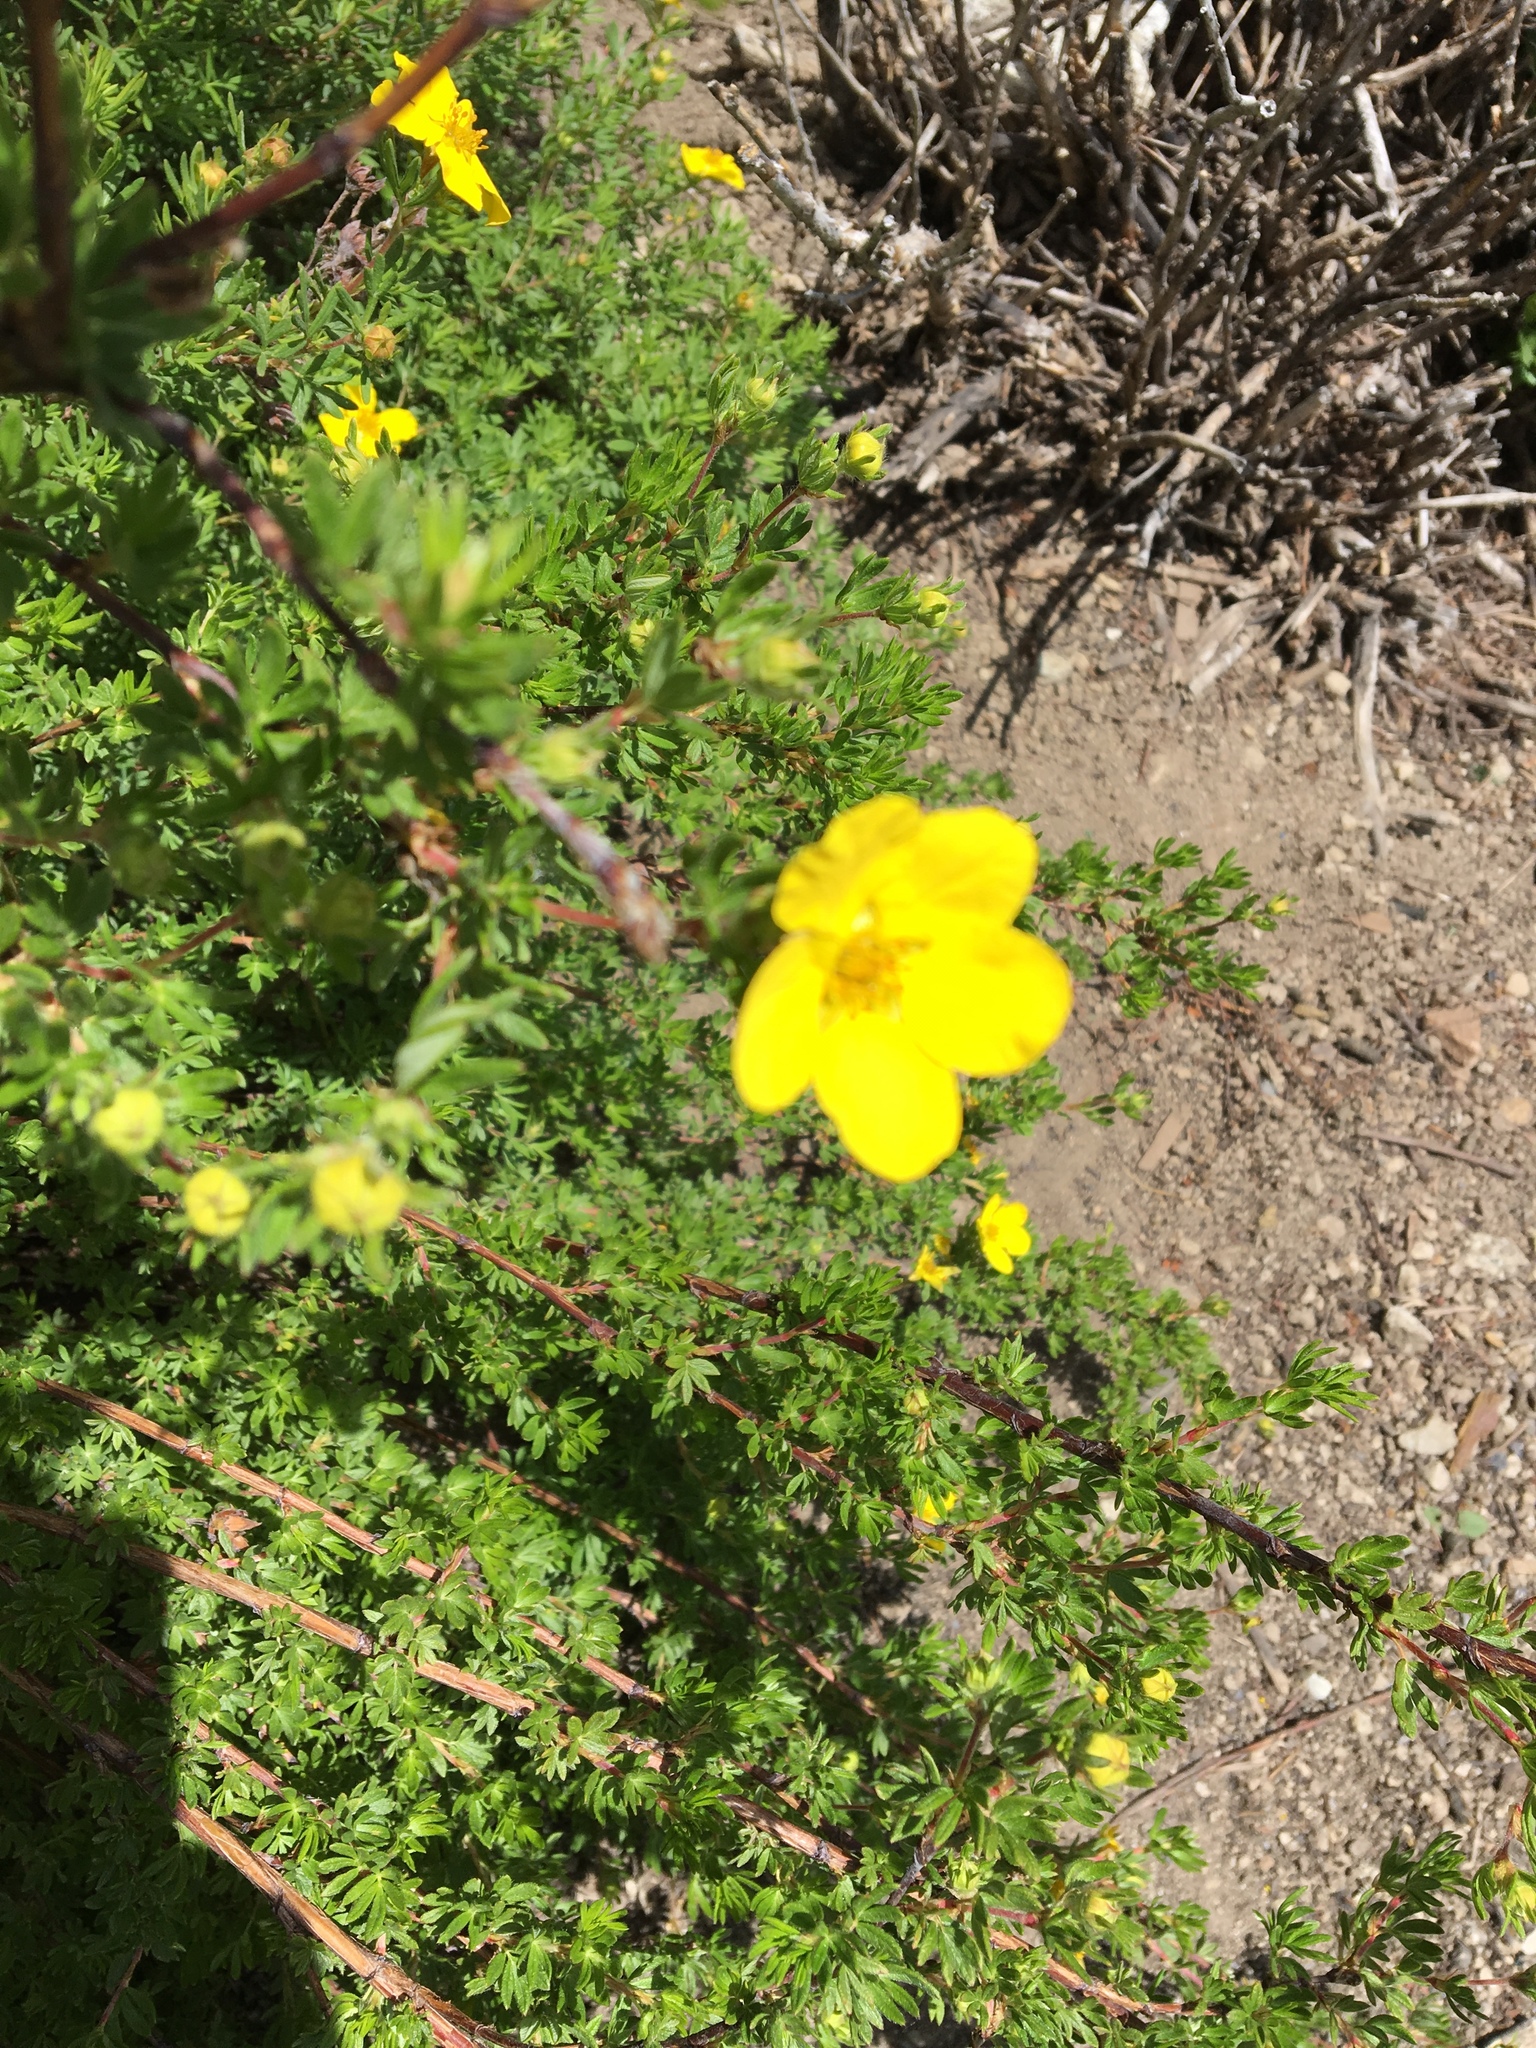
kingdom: Plantae
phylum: Tracheophyta
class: Magnoliopsida
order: Rosales
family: Rosaceae
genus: Dasiphora
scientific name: Dasiphora fruticosa
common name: Shrubby cinquefoil
